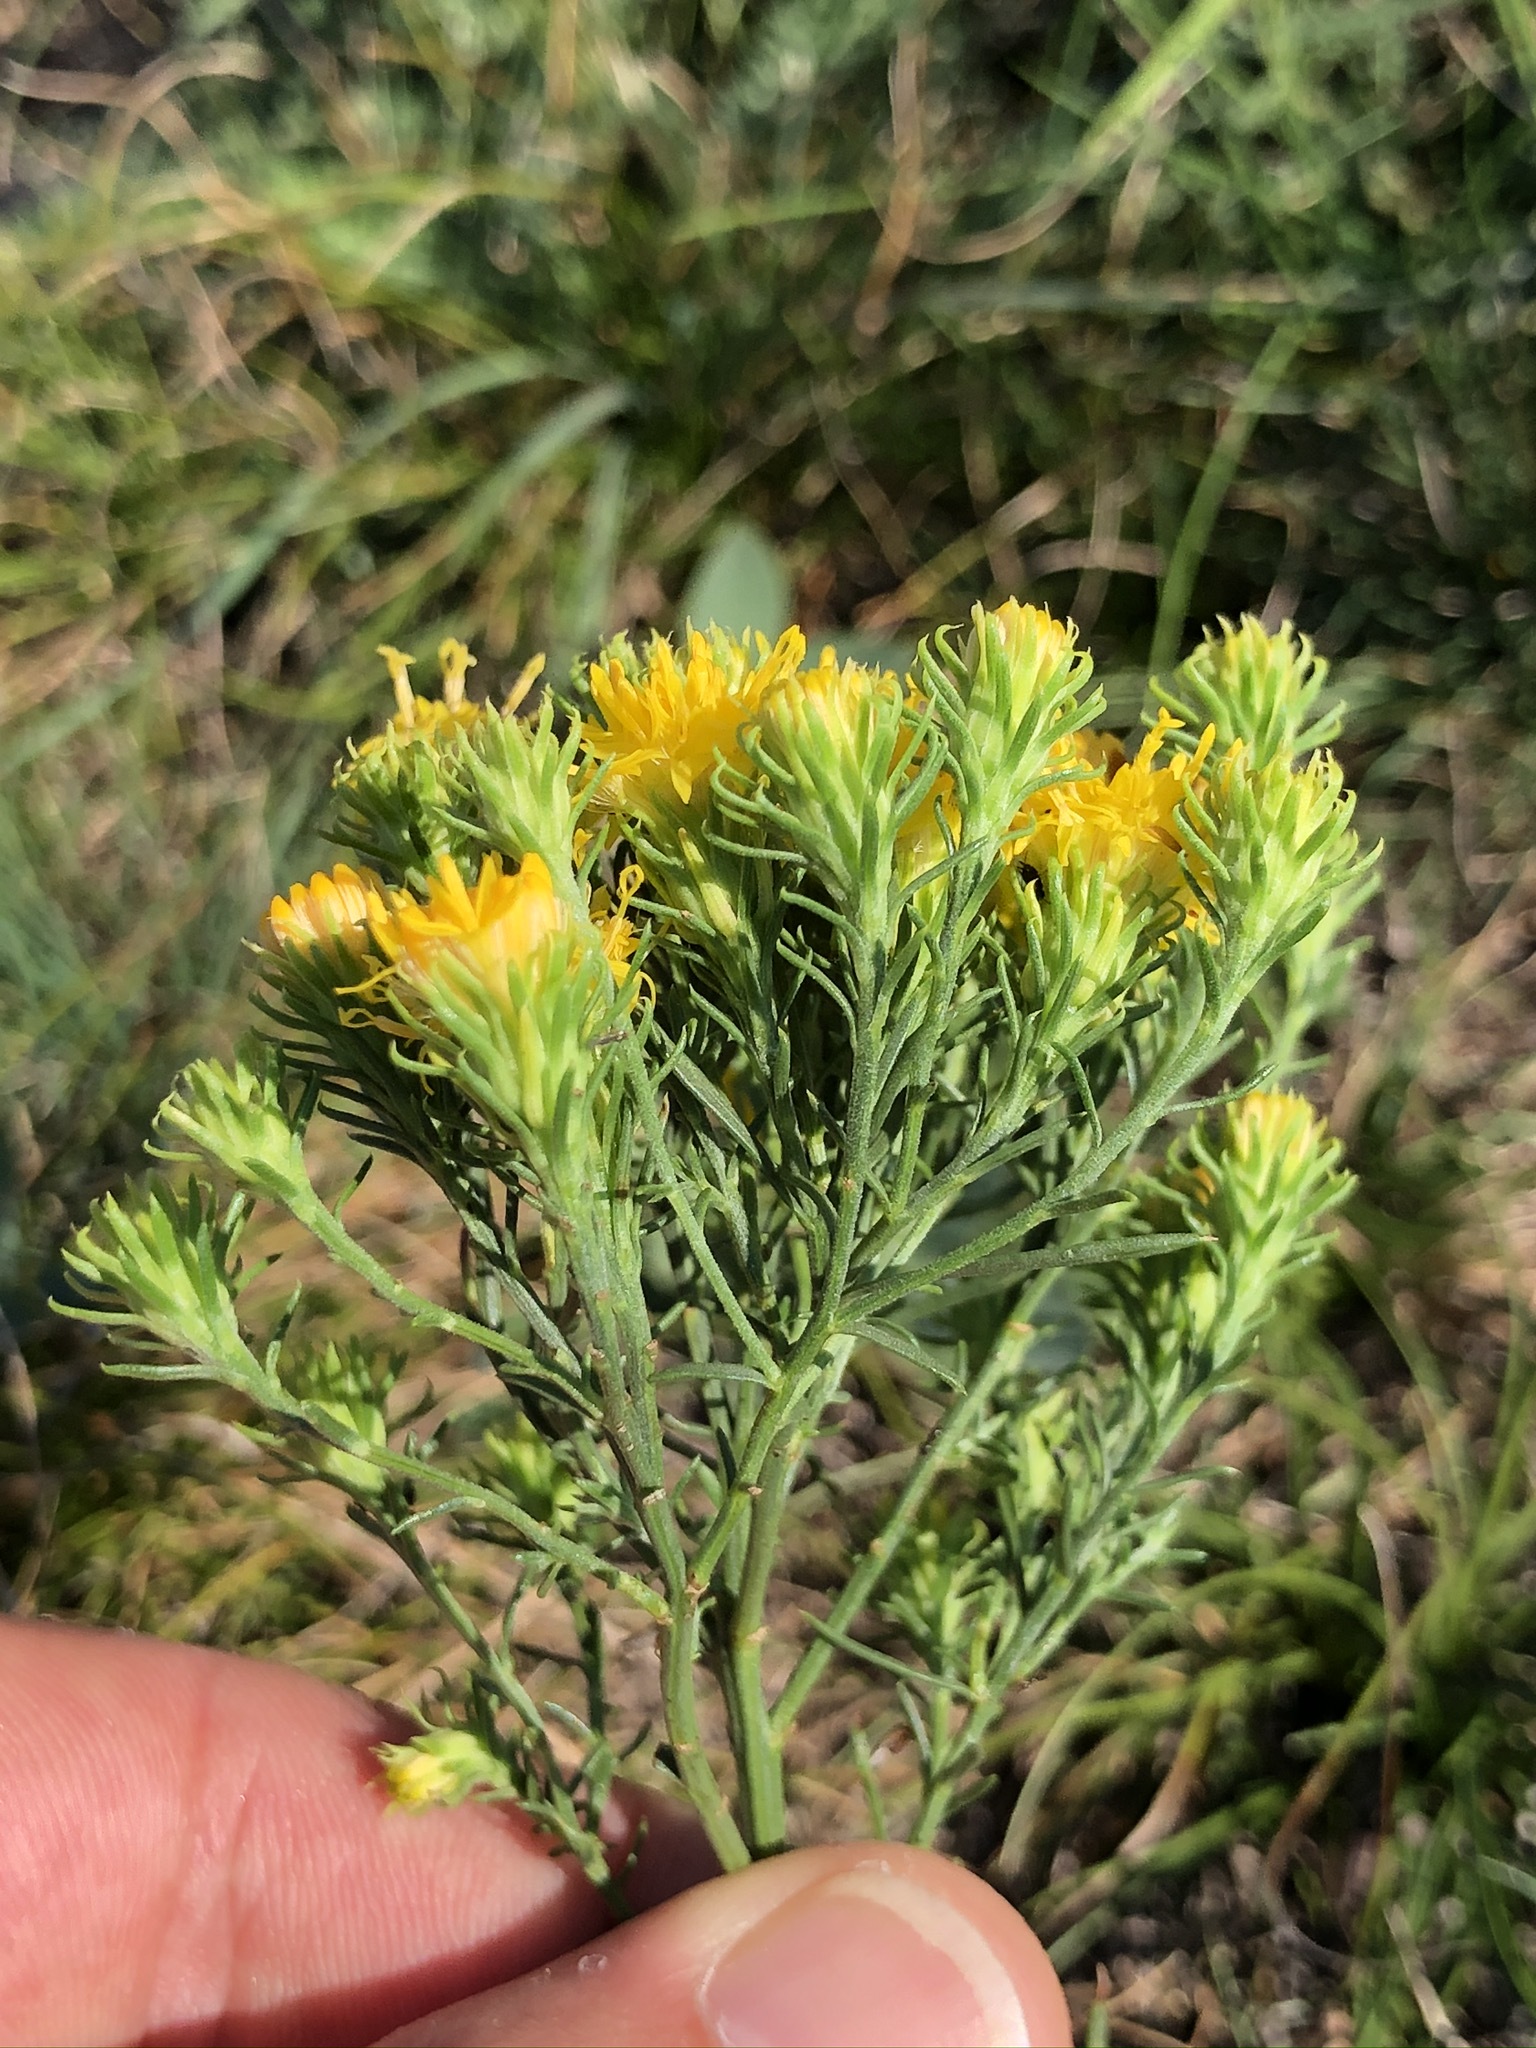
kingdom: Plantae
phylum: Tracheophyta
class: Magnoliopsida
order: Asterales
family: Asteraceae
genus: Galatella
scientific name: Galatella linosyris
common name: Goldilocks aster
